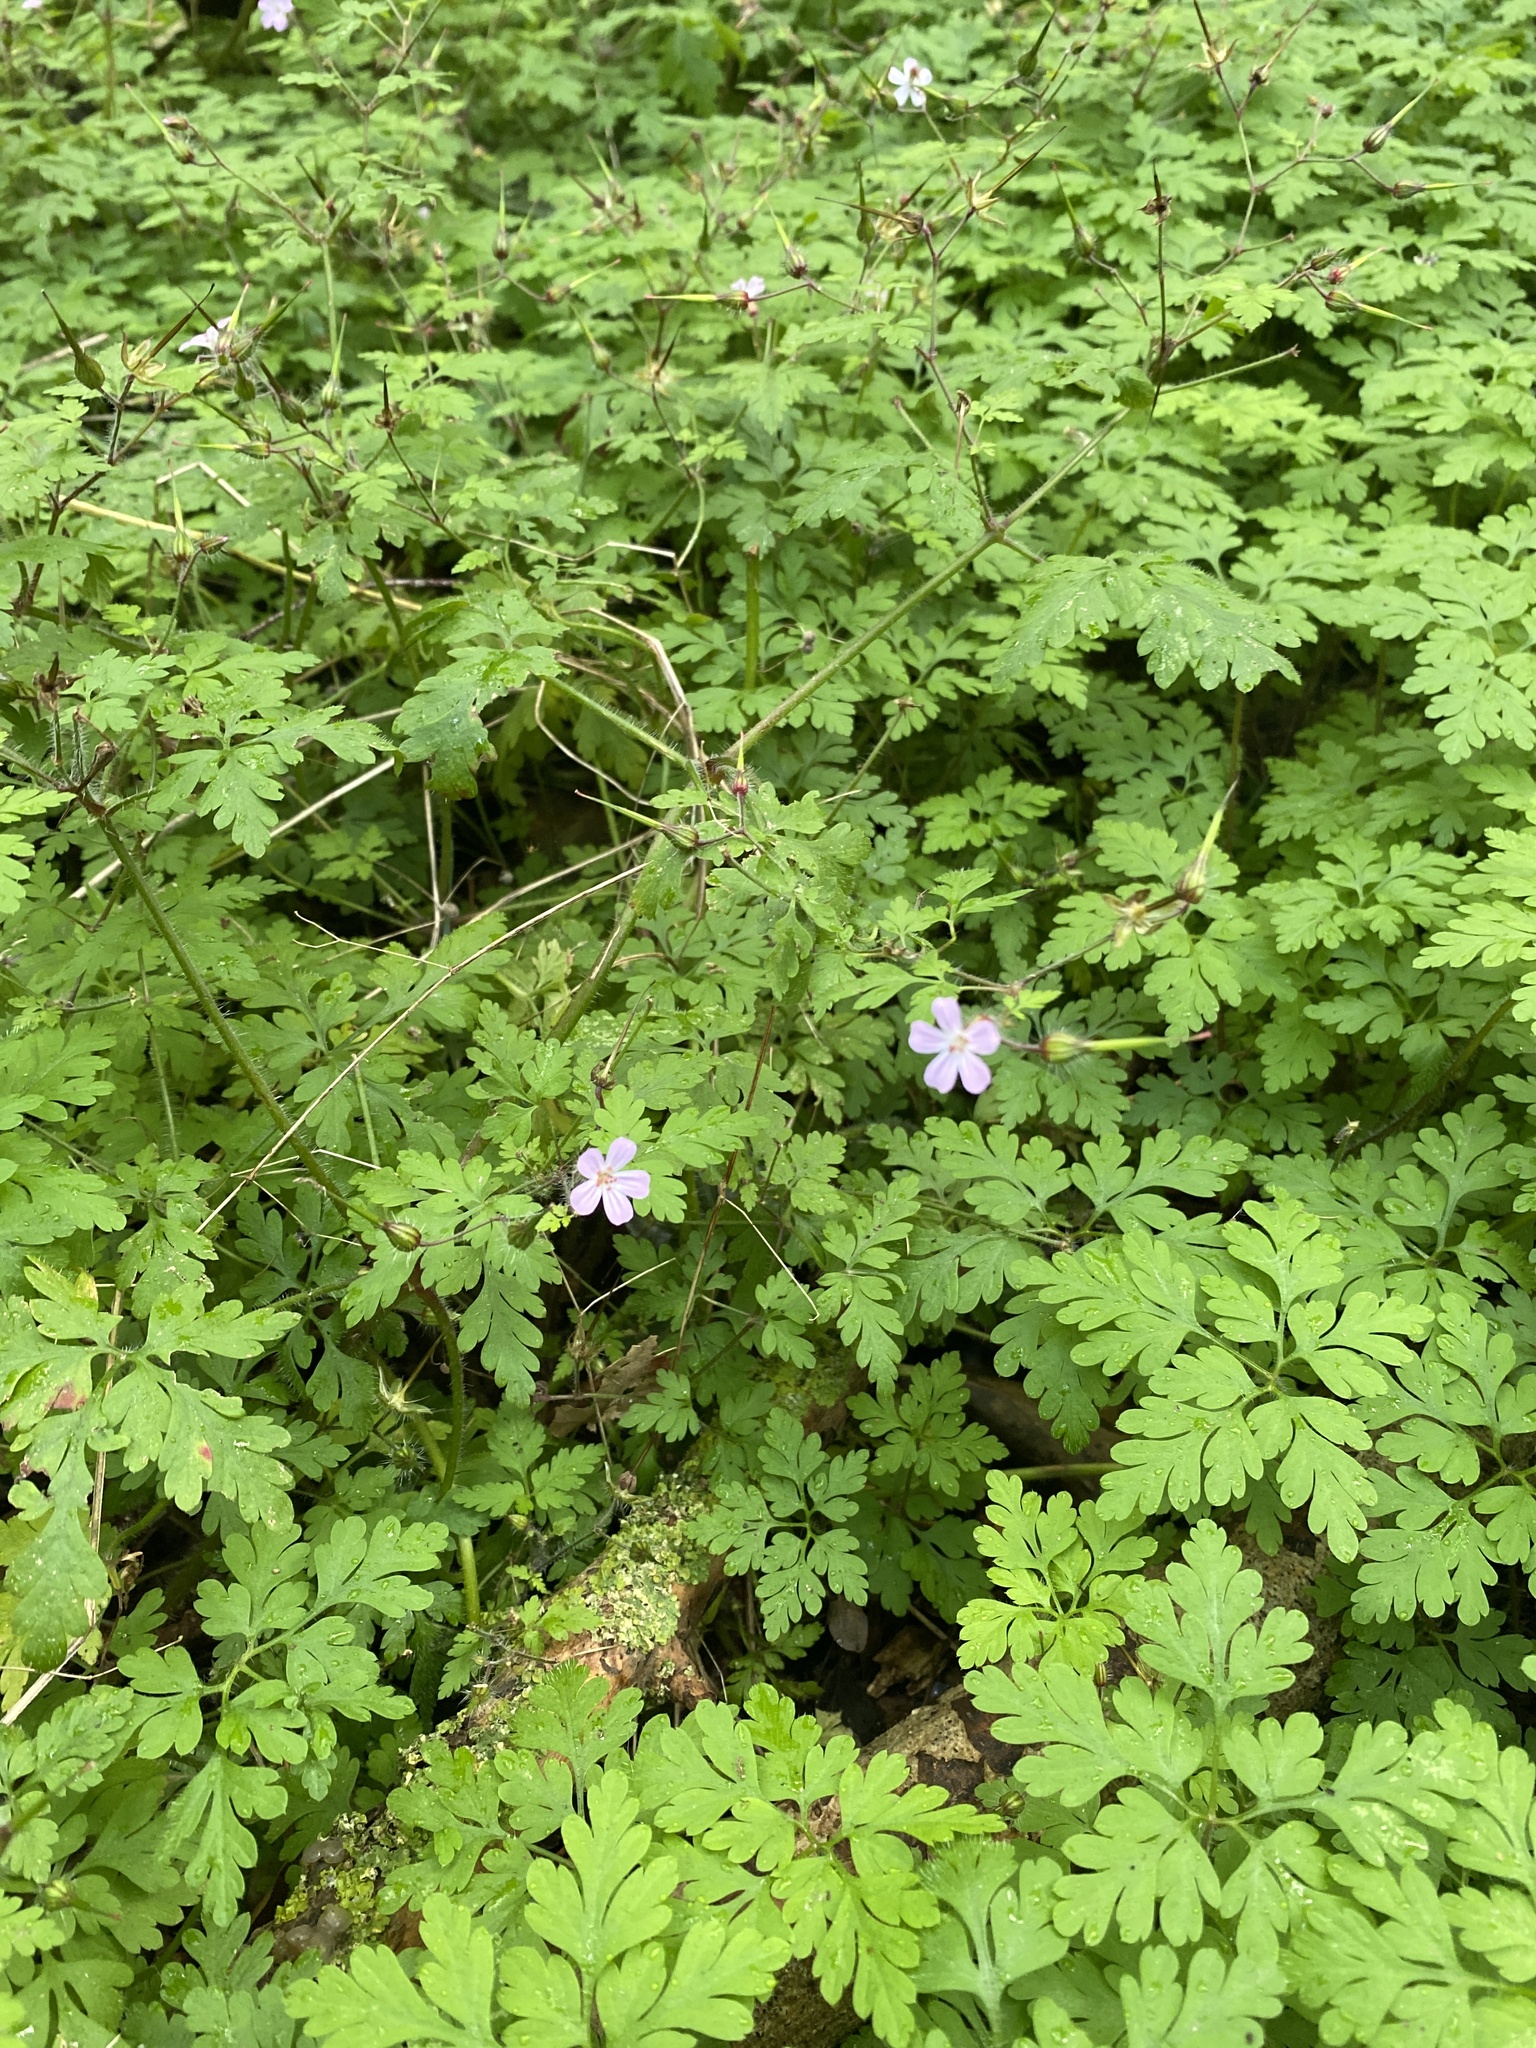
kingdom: Plantae
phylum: Tracheophyta
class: Magnoliopsida
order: Geraniales
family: Geraniaceae
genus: Geranium
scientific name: Geranium robertianum
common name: Herb-robert
